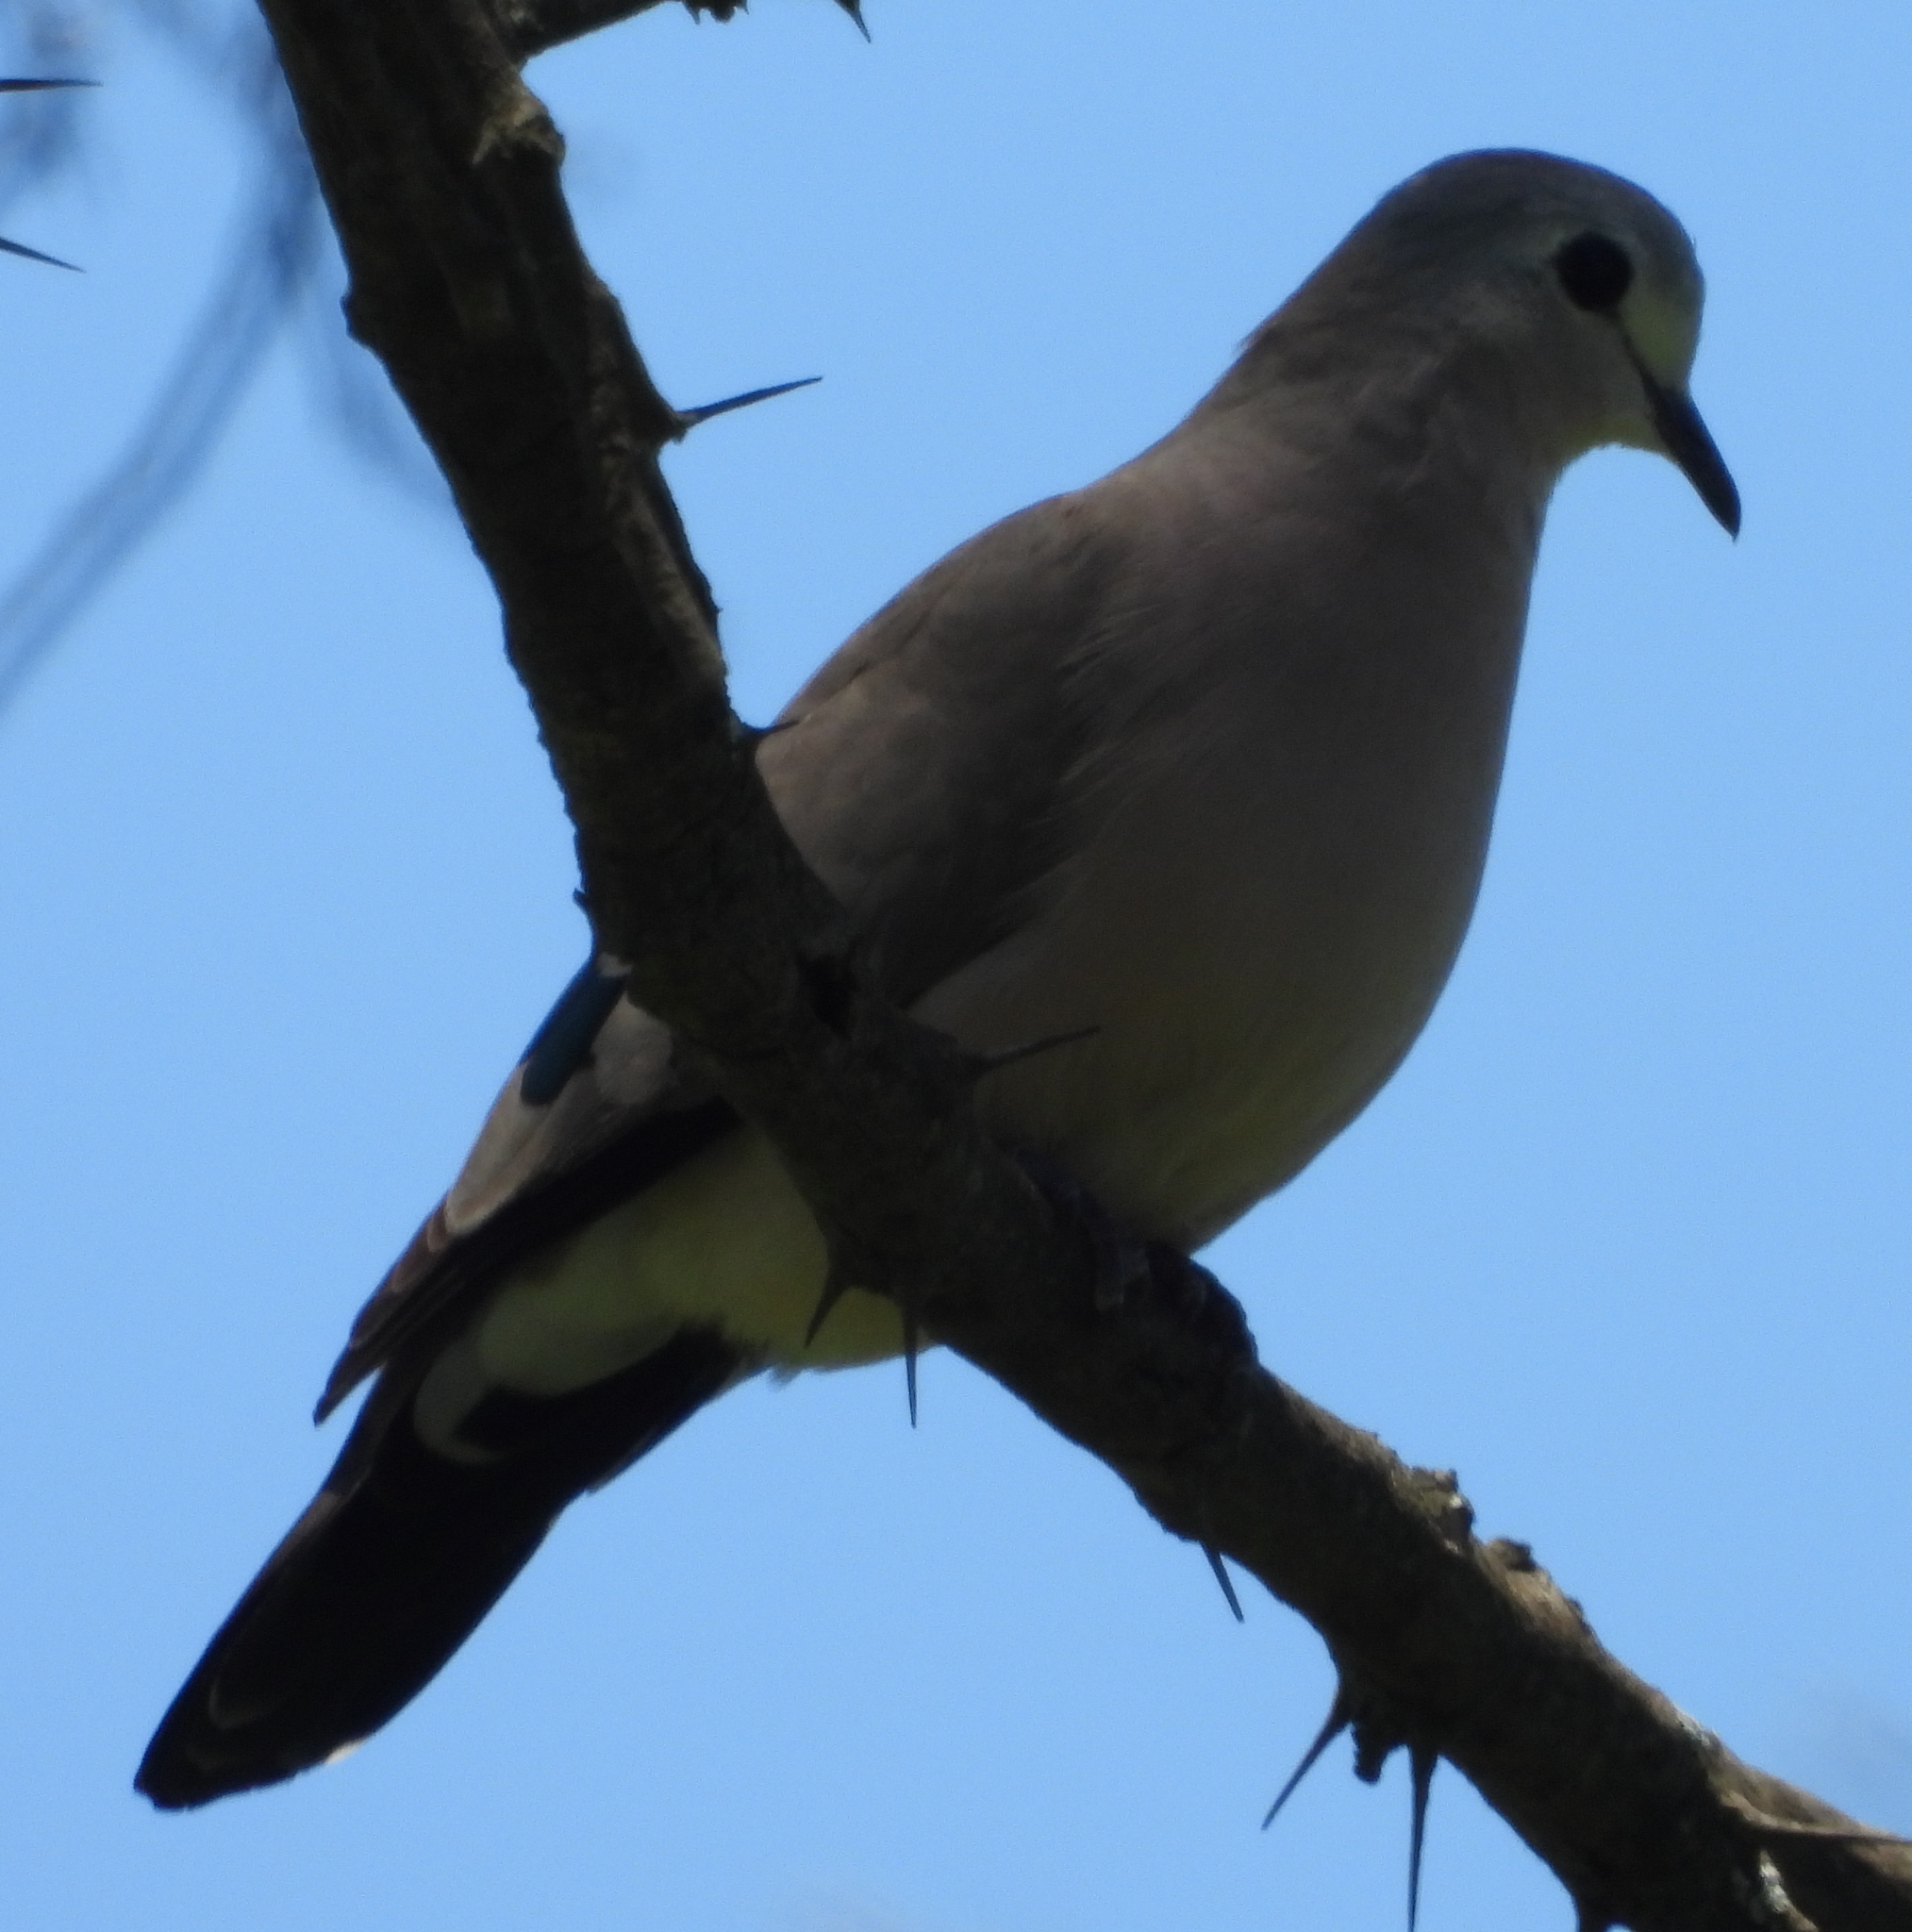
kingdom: Animalia
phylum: Chordata
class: Aves
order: Columbiformes
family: Columbidae
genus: Turtur
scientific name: Turtur chalcospilos
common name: Emerald-spotted wood dove
